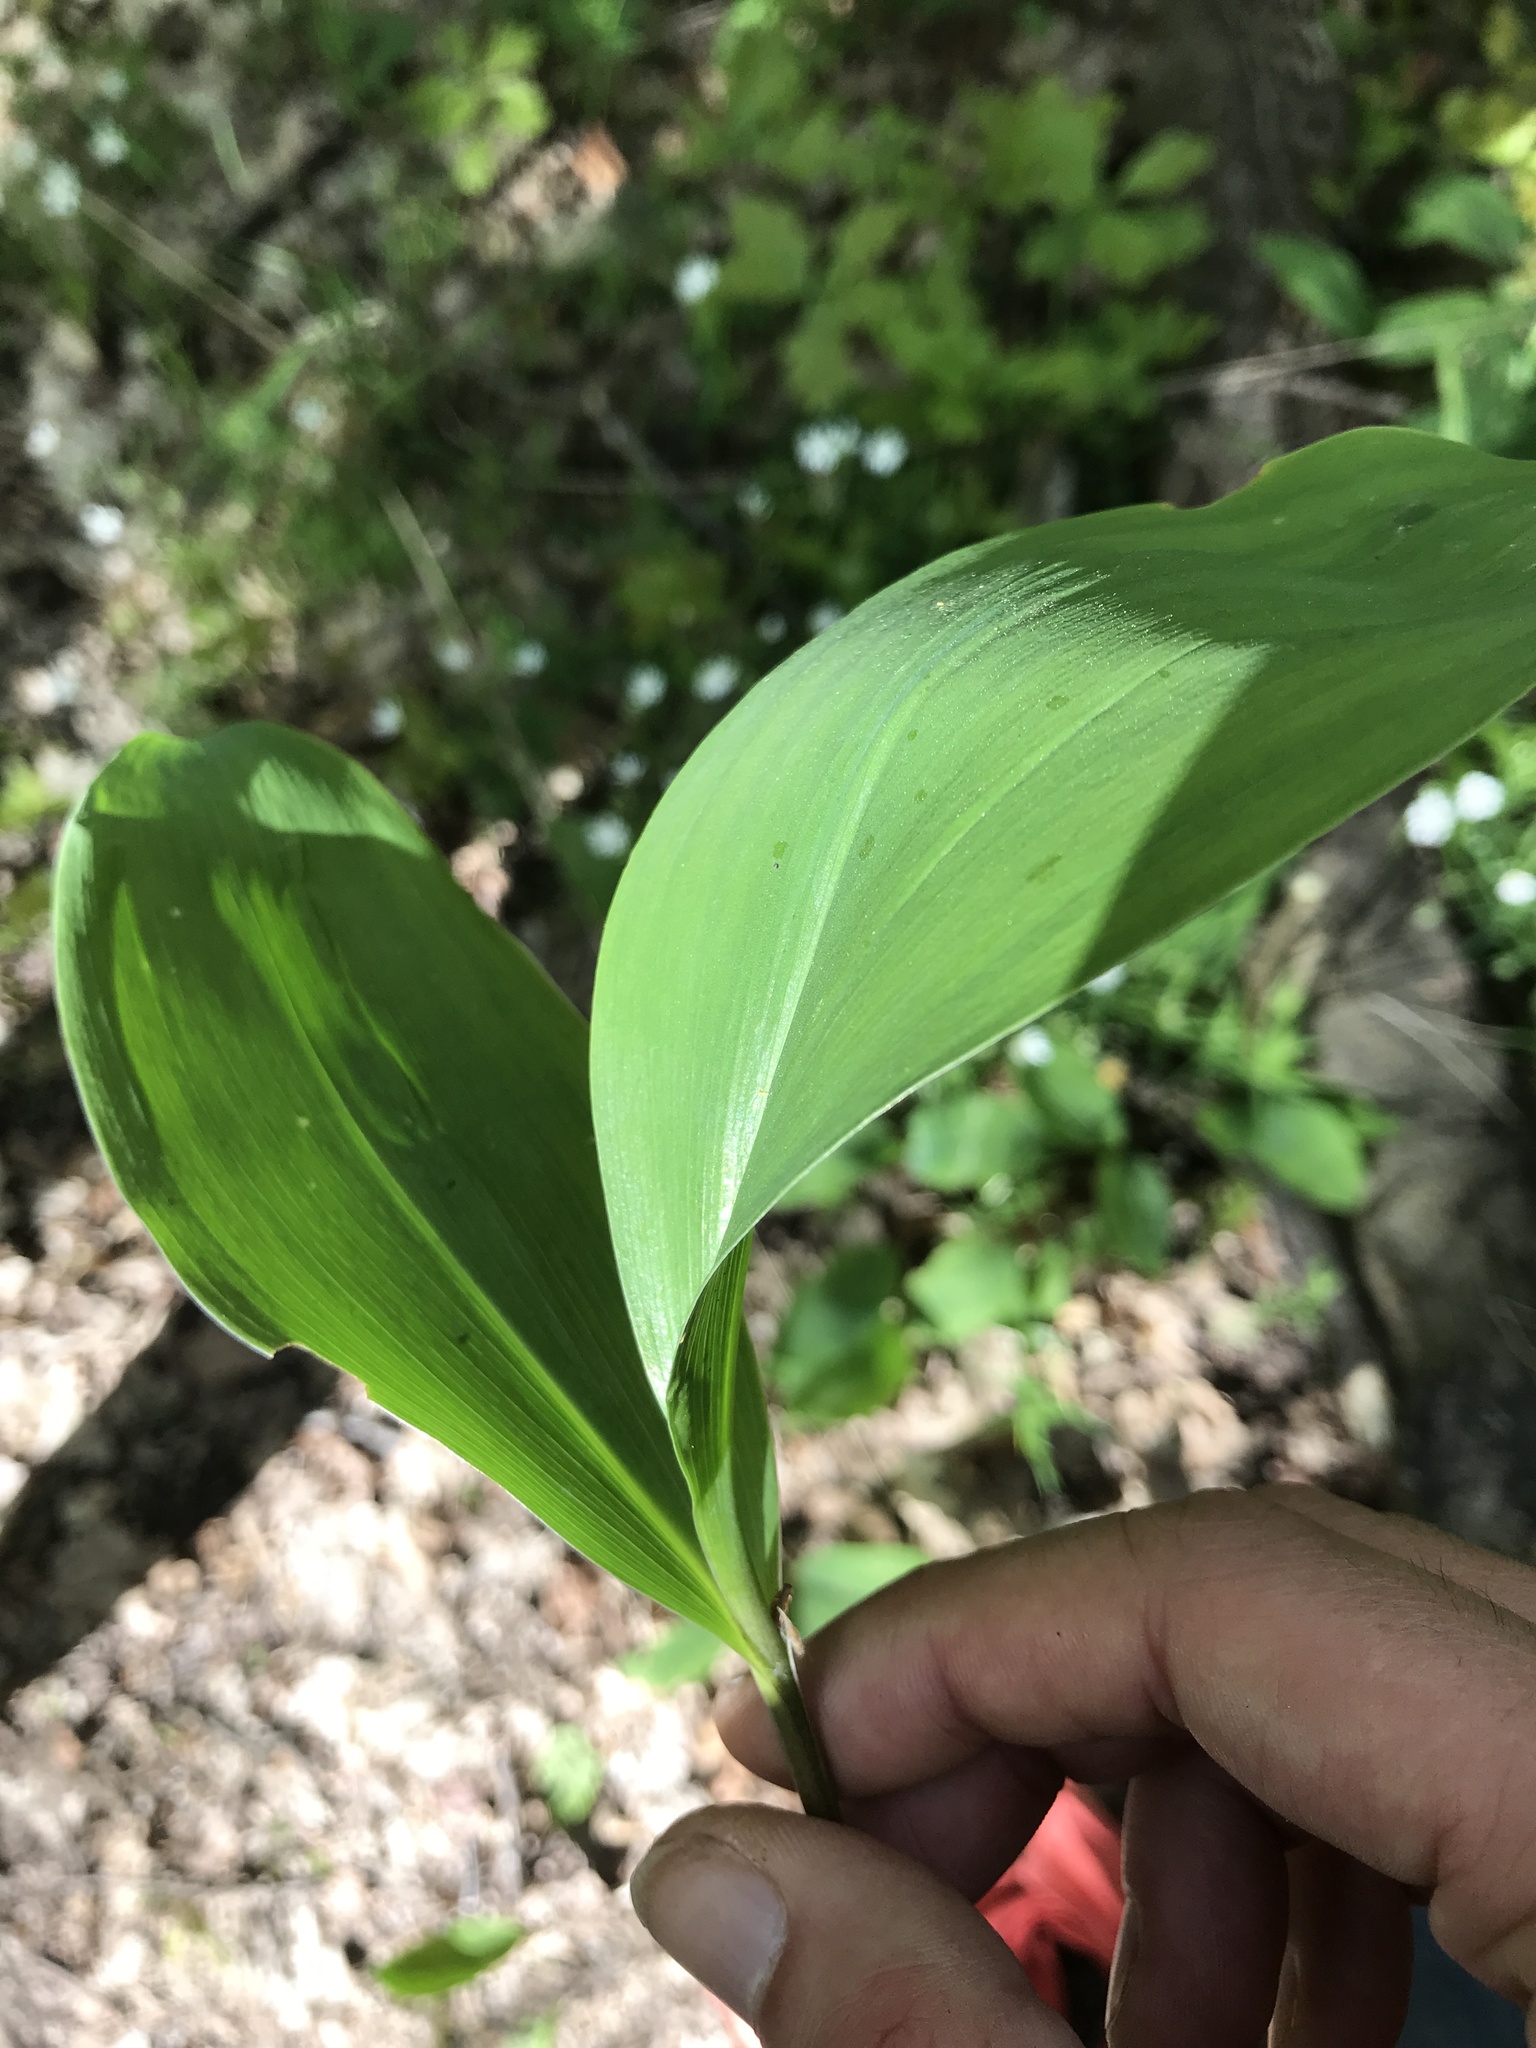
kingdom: Plantae
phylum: Tracheophyta
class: Liliopsida
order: Asparagales
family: Asparagaceae
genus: Convallaria
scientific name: Convallaria majalis
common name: Lily-of-the-valley
